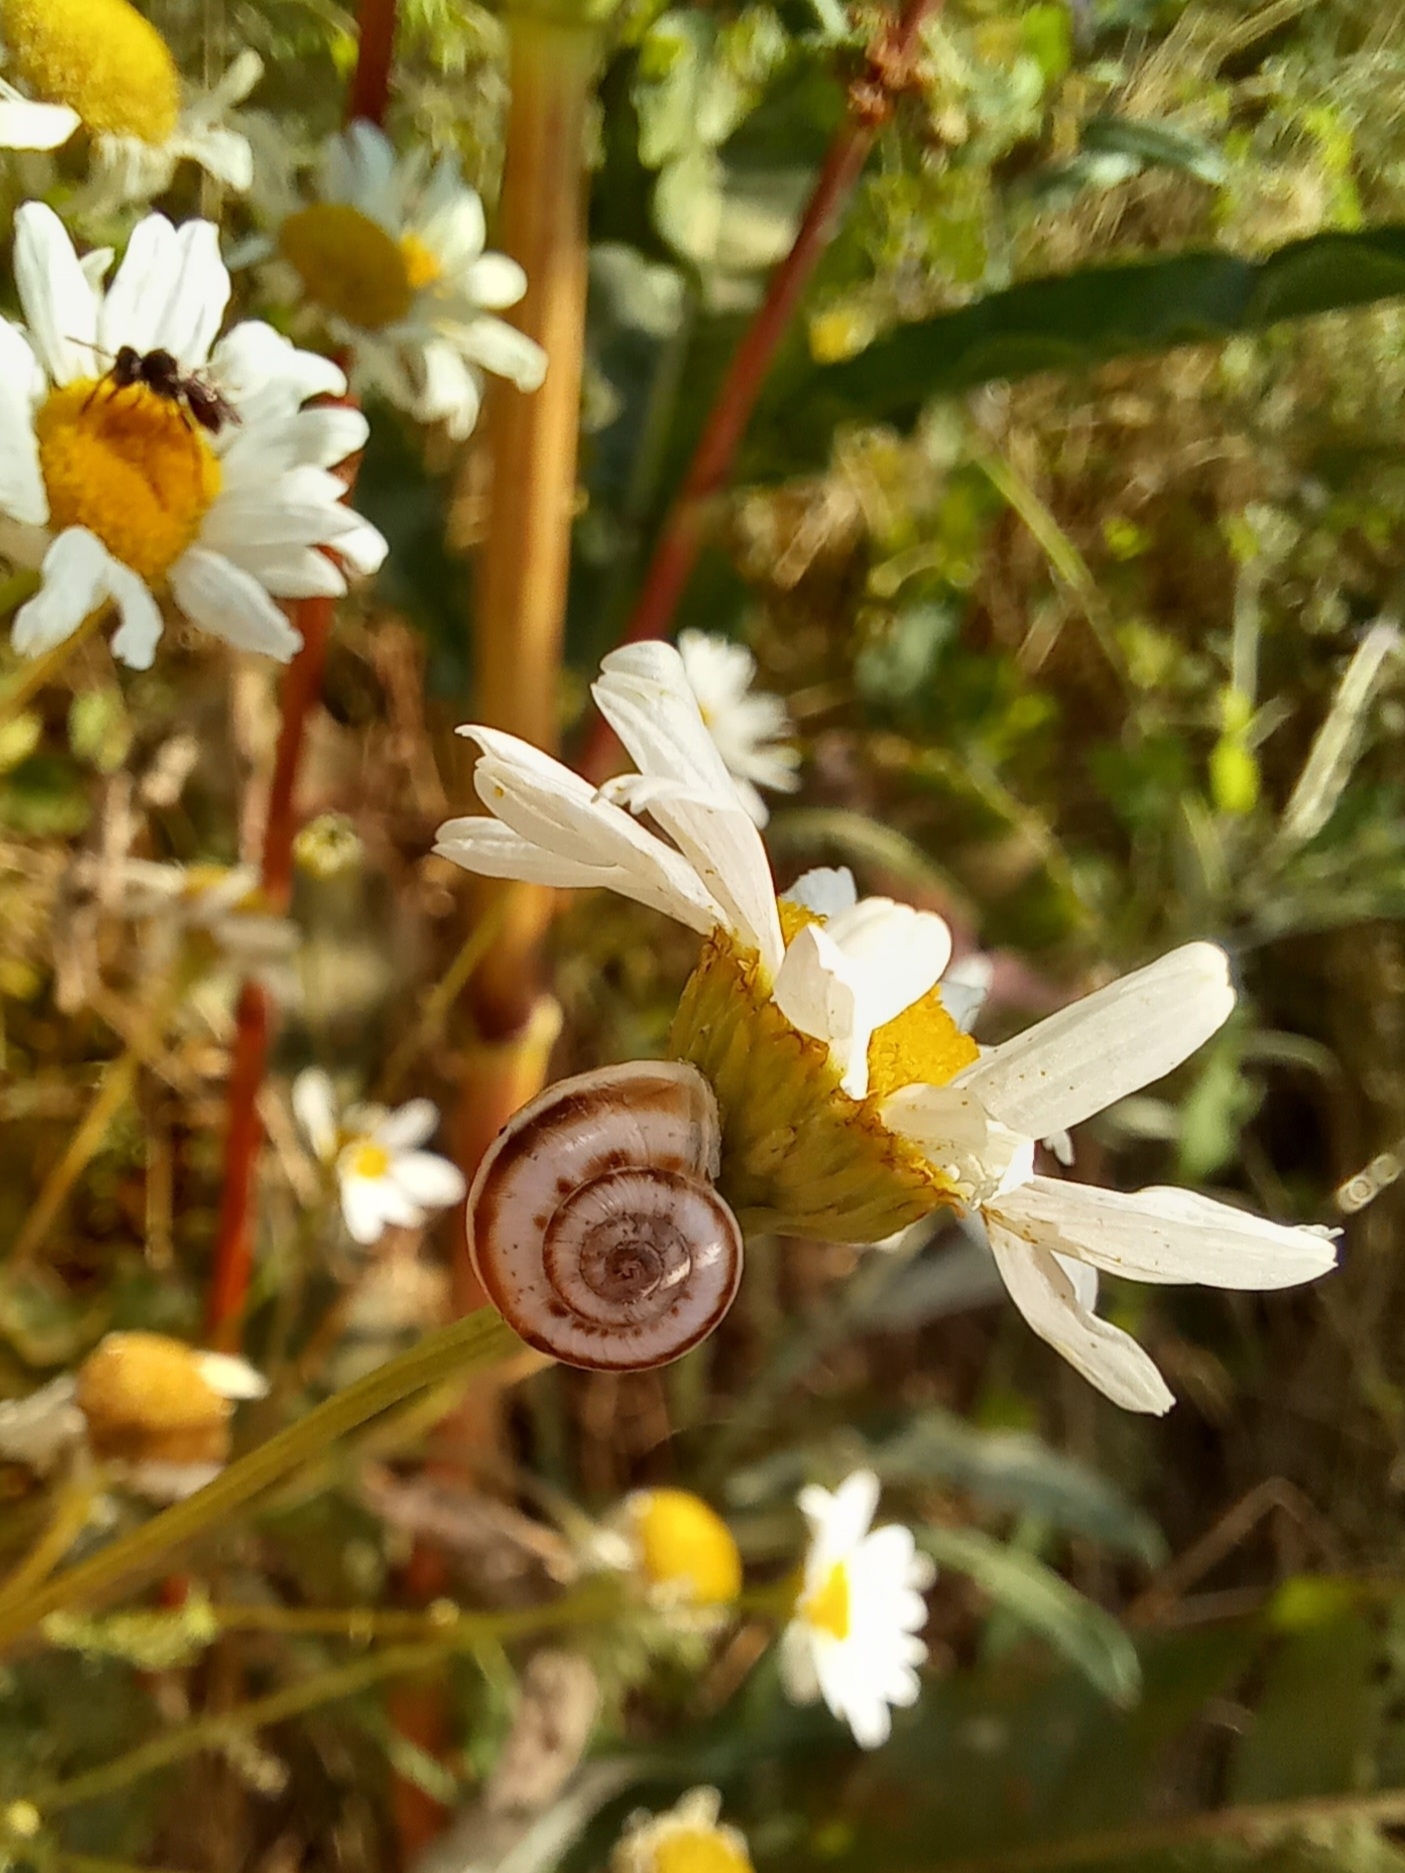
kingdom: Animalia
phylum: Mollusca
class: Gastropoda
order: Stylommatophora
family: Geomitridae
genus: Xeropicta
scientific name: Xeropicta derbentina
